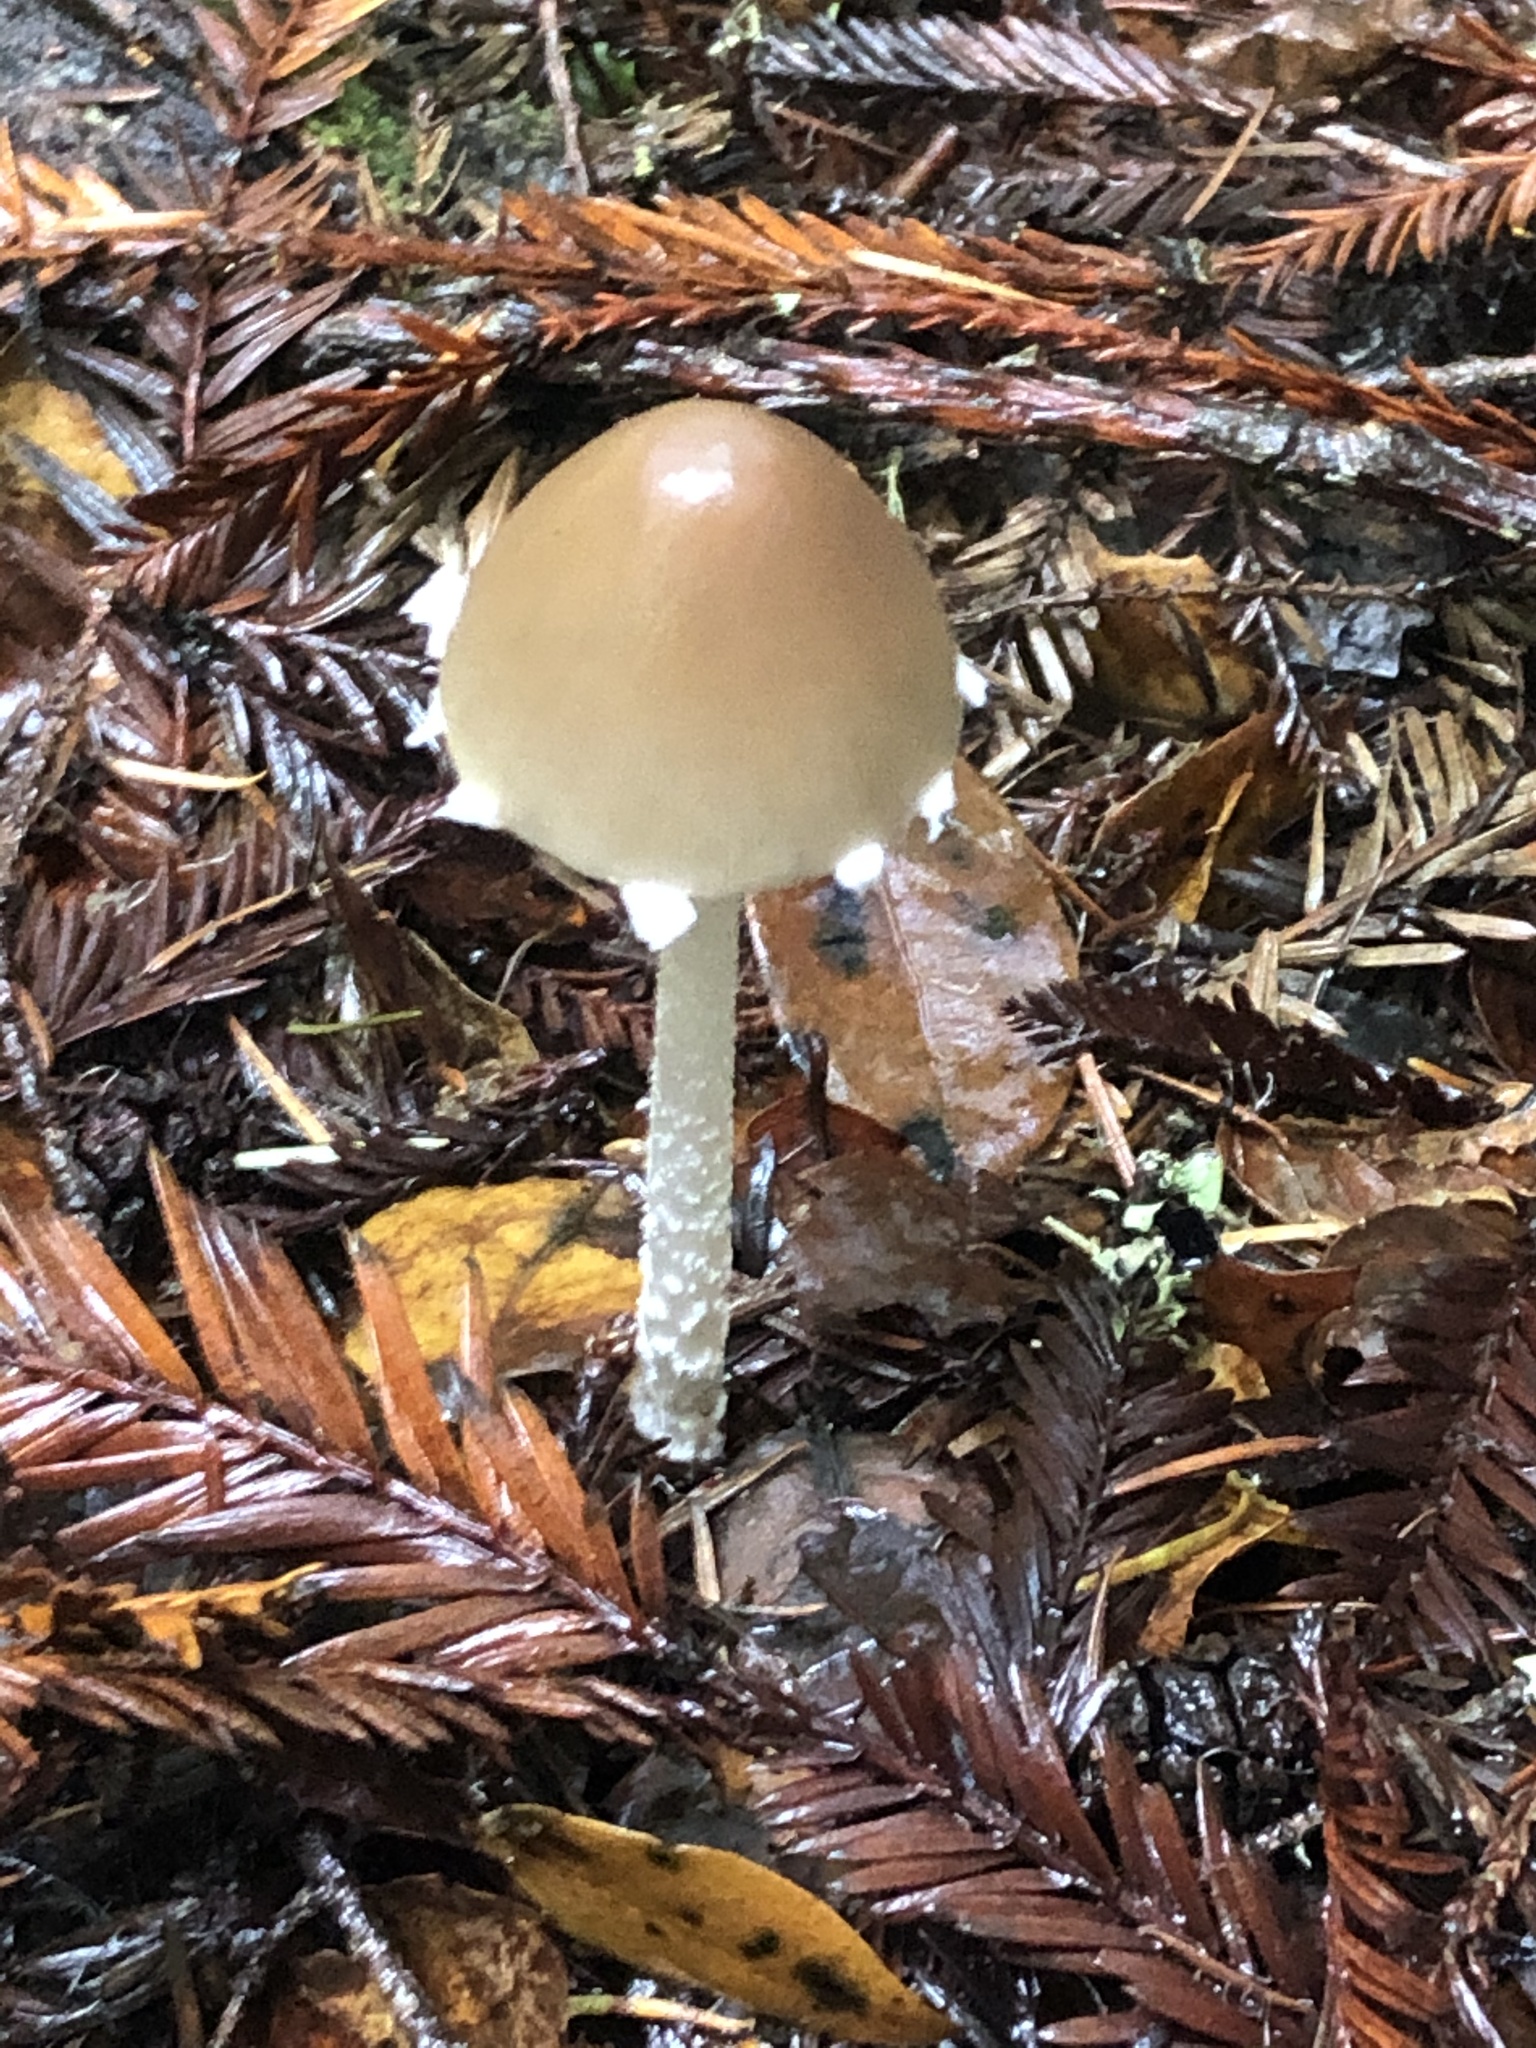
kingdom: Fungi
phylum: Basidiomycota
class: Agaricomycetes
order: Agaricales
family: Psathyrellaceae
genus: Psathyrella
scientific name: Psathyrella longipes
